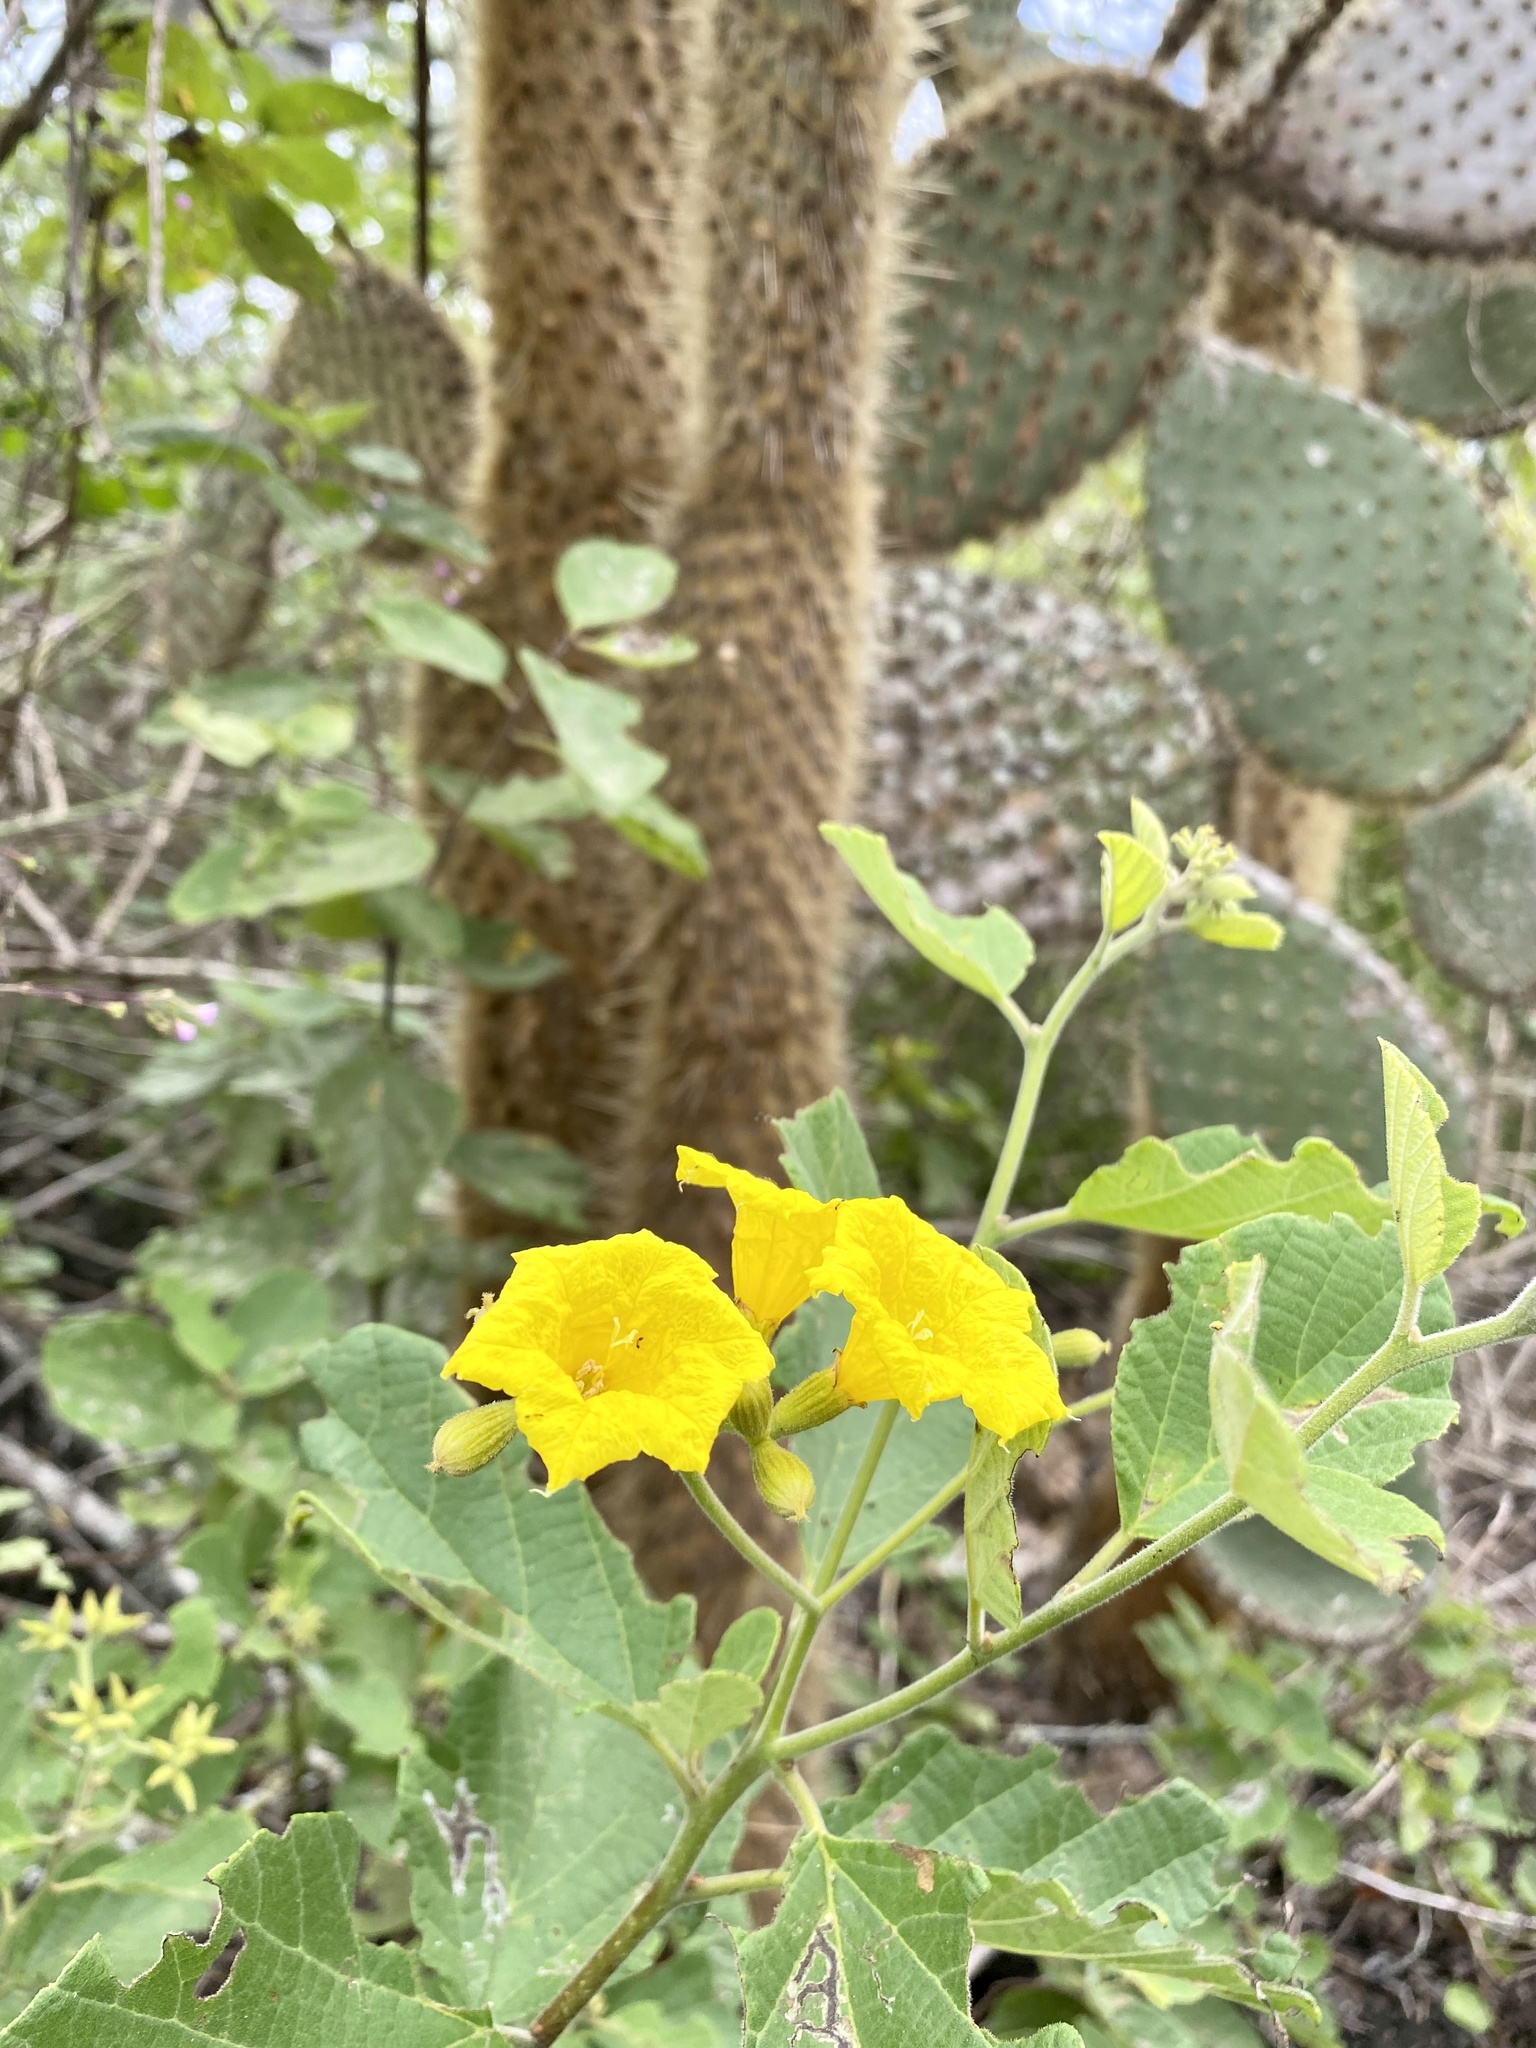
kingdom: Plantae
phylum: Tracheophyta
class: Magnoliopsida
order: Boraginales
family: Cordiaceae
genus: Cordia
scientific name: Cordia lutea
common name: Yellow geiger
